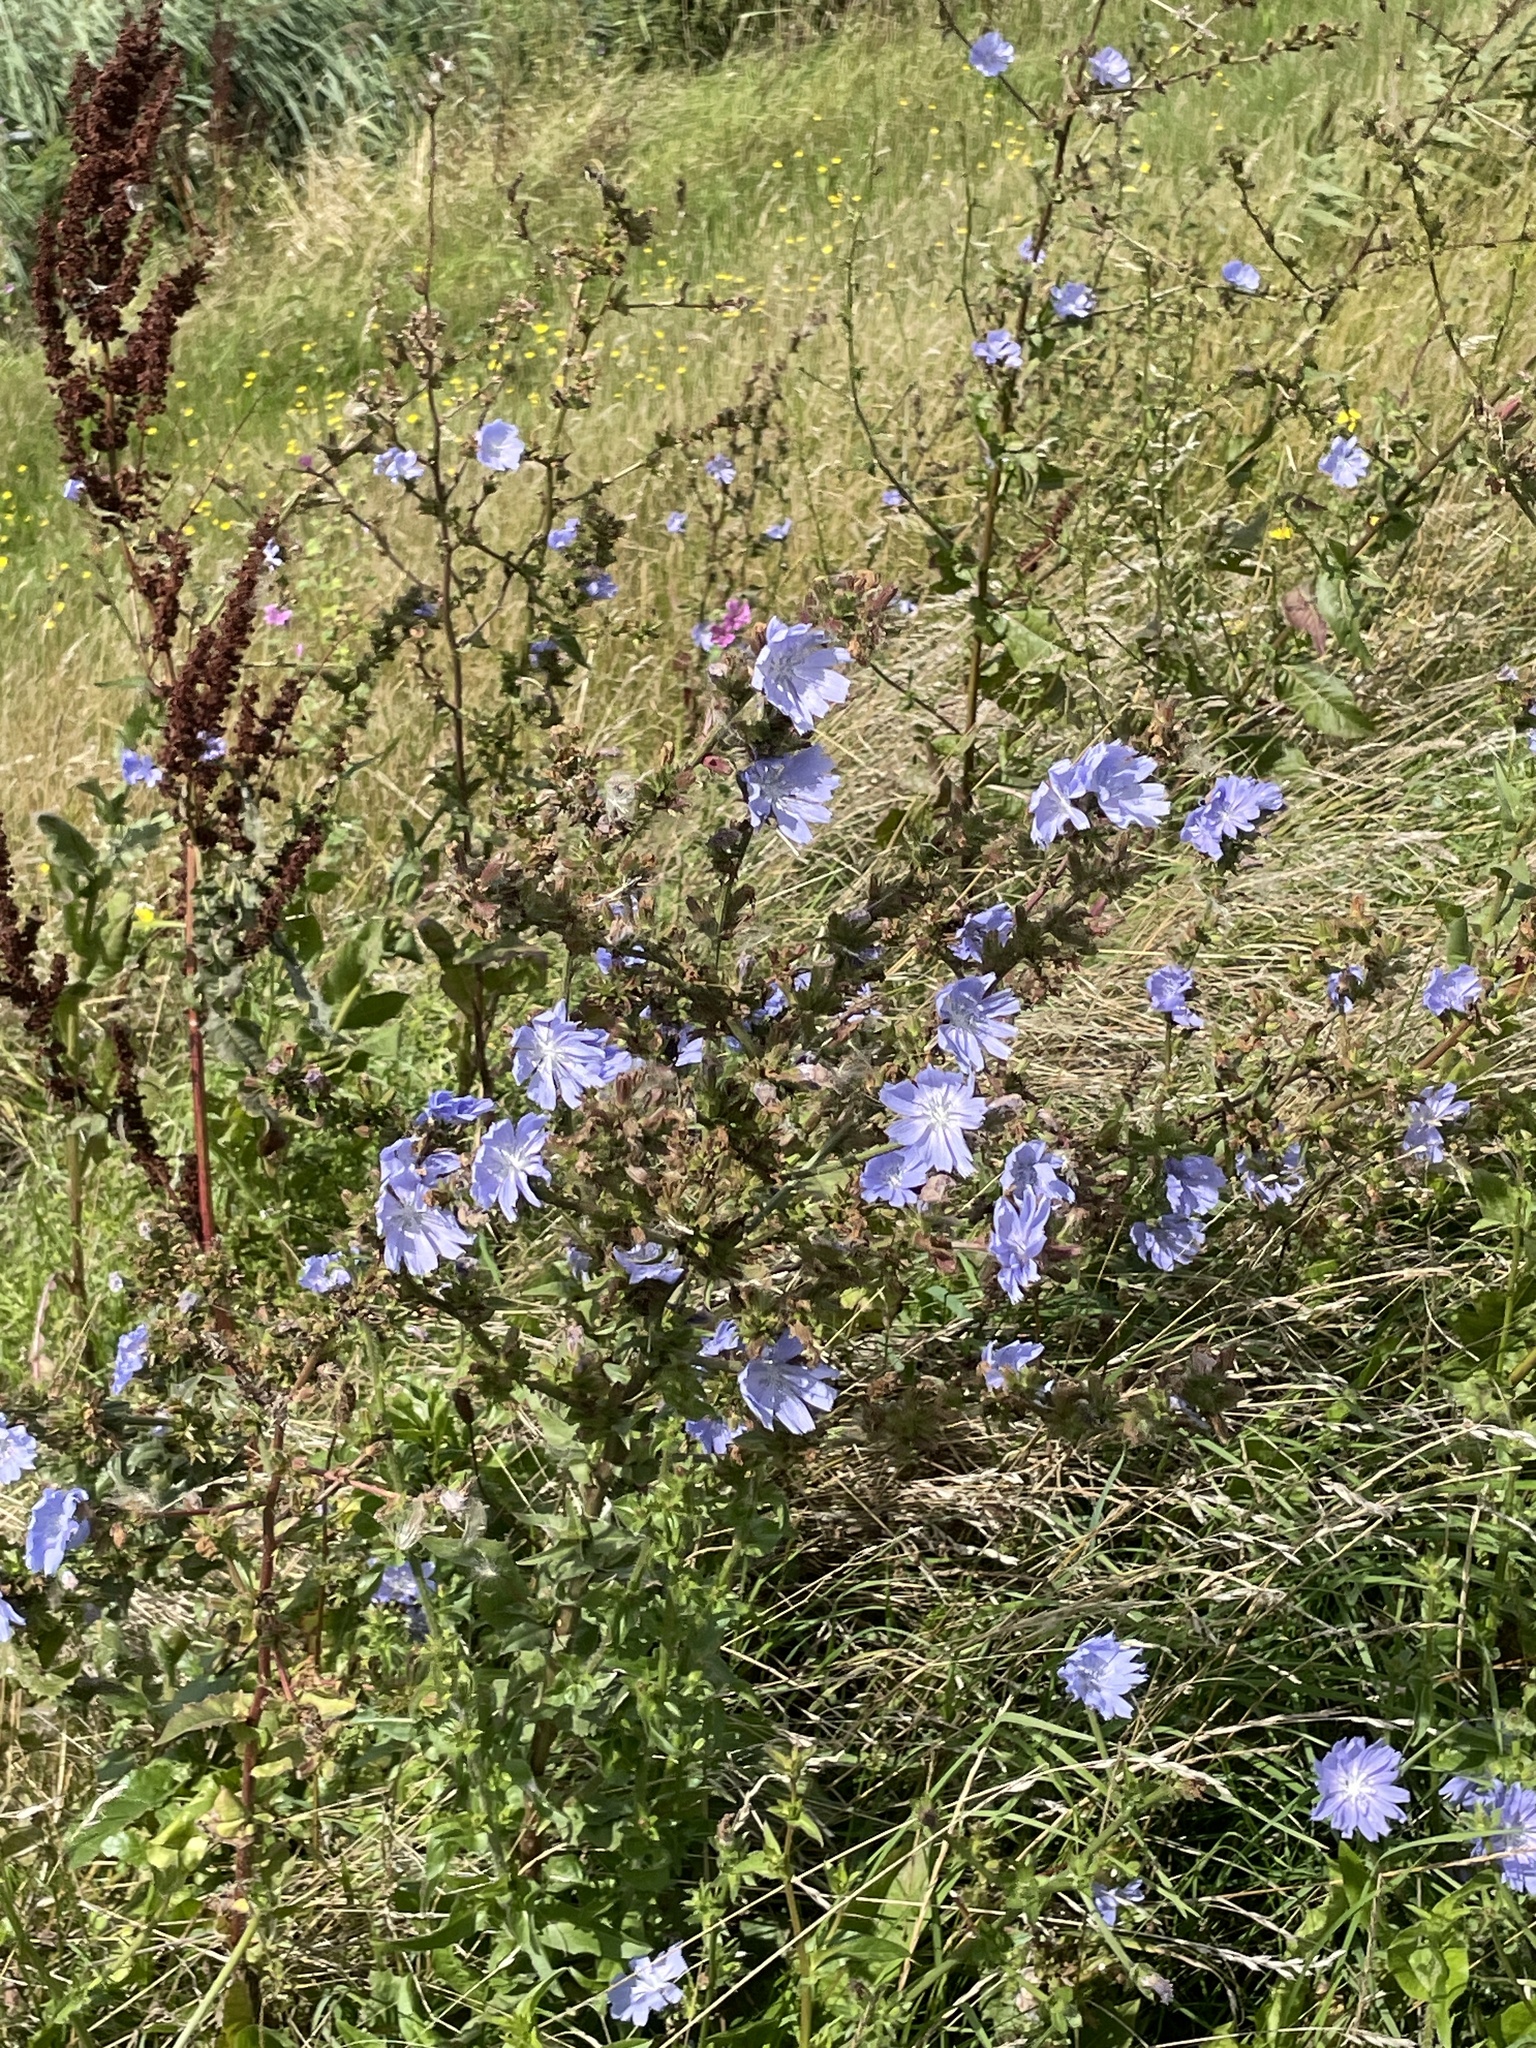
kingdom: Plantae
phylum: Tracheophyta
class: Magnoliopsida
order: Asterales
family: Asteraceae
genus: Cichorium
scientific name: Cichorium intybus
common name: Chicory
